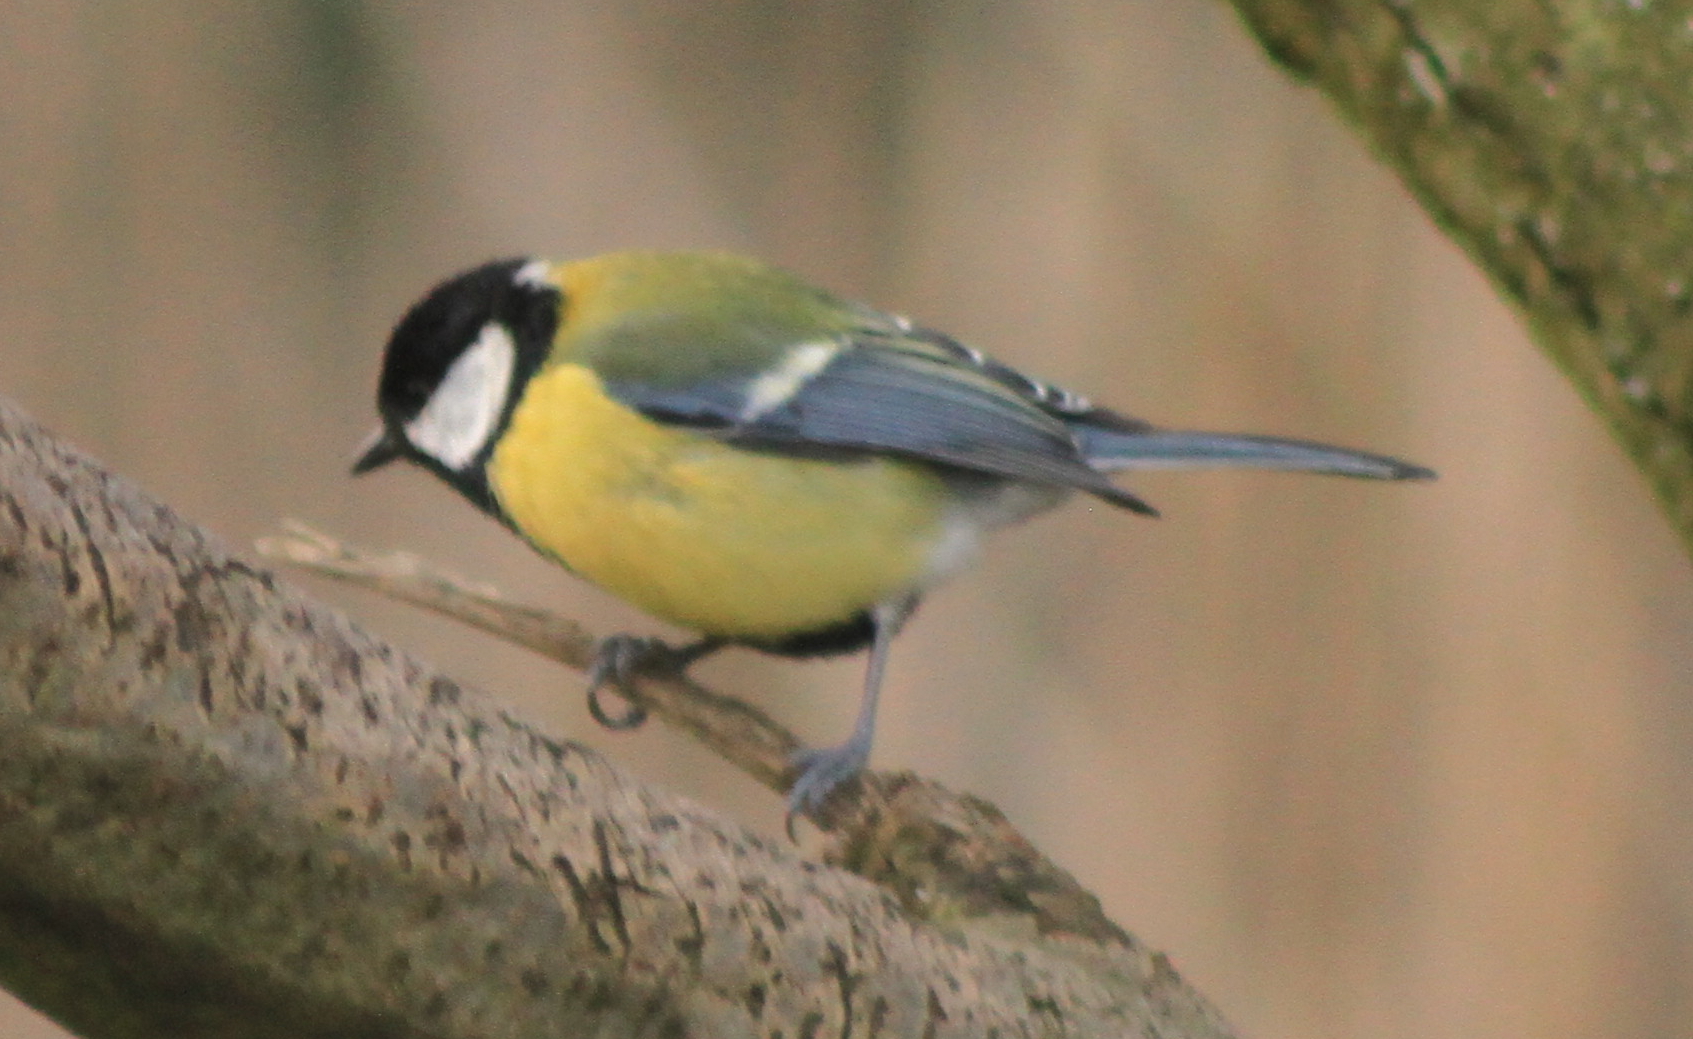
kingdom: Animalia
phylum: Chordata
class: Aves
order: Passeriformes
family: Paridae
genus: Parus
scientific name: Parus major
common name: Great tit
